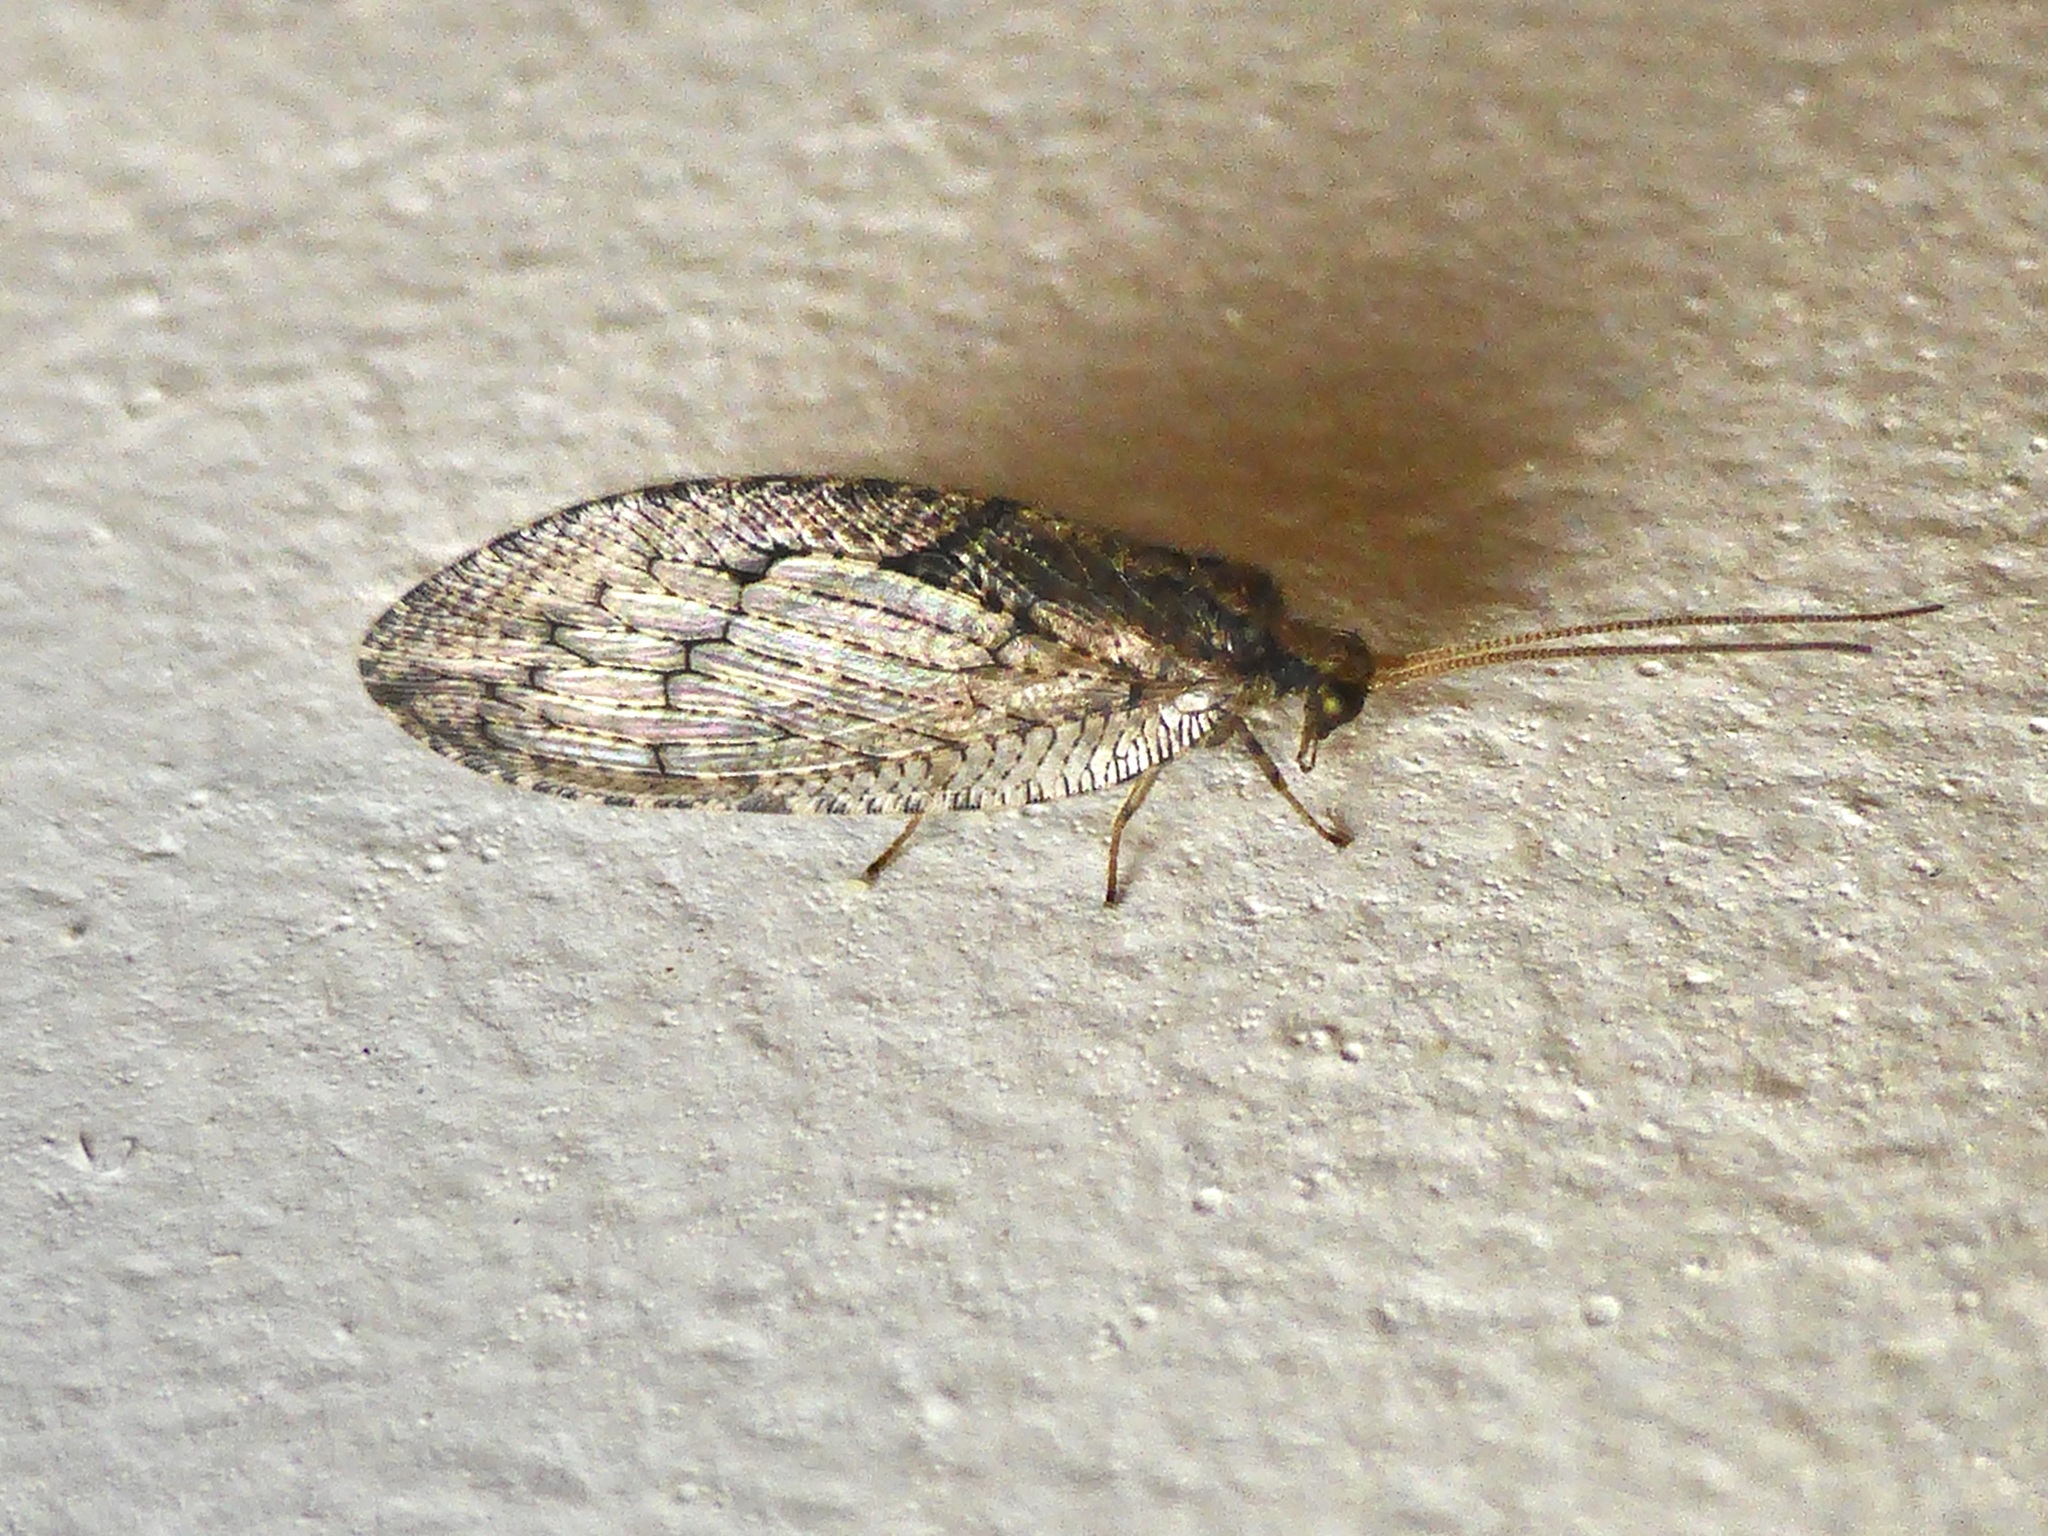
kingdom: Animalia
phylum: Arthropoda
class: Insecta
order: Neuroptera
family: Hemerobiidae
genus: Wesmaelius
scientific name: Wesmaelius subnebulosus
